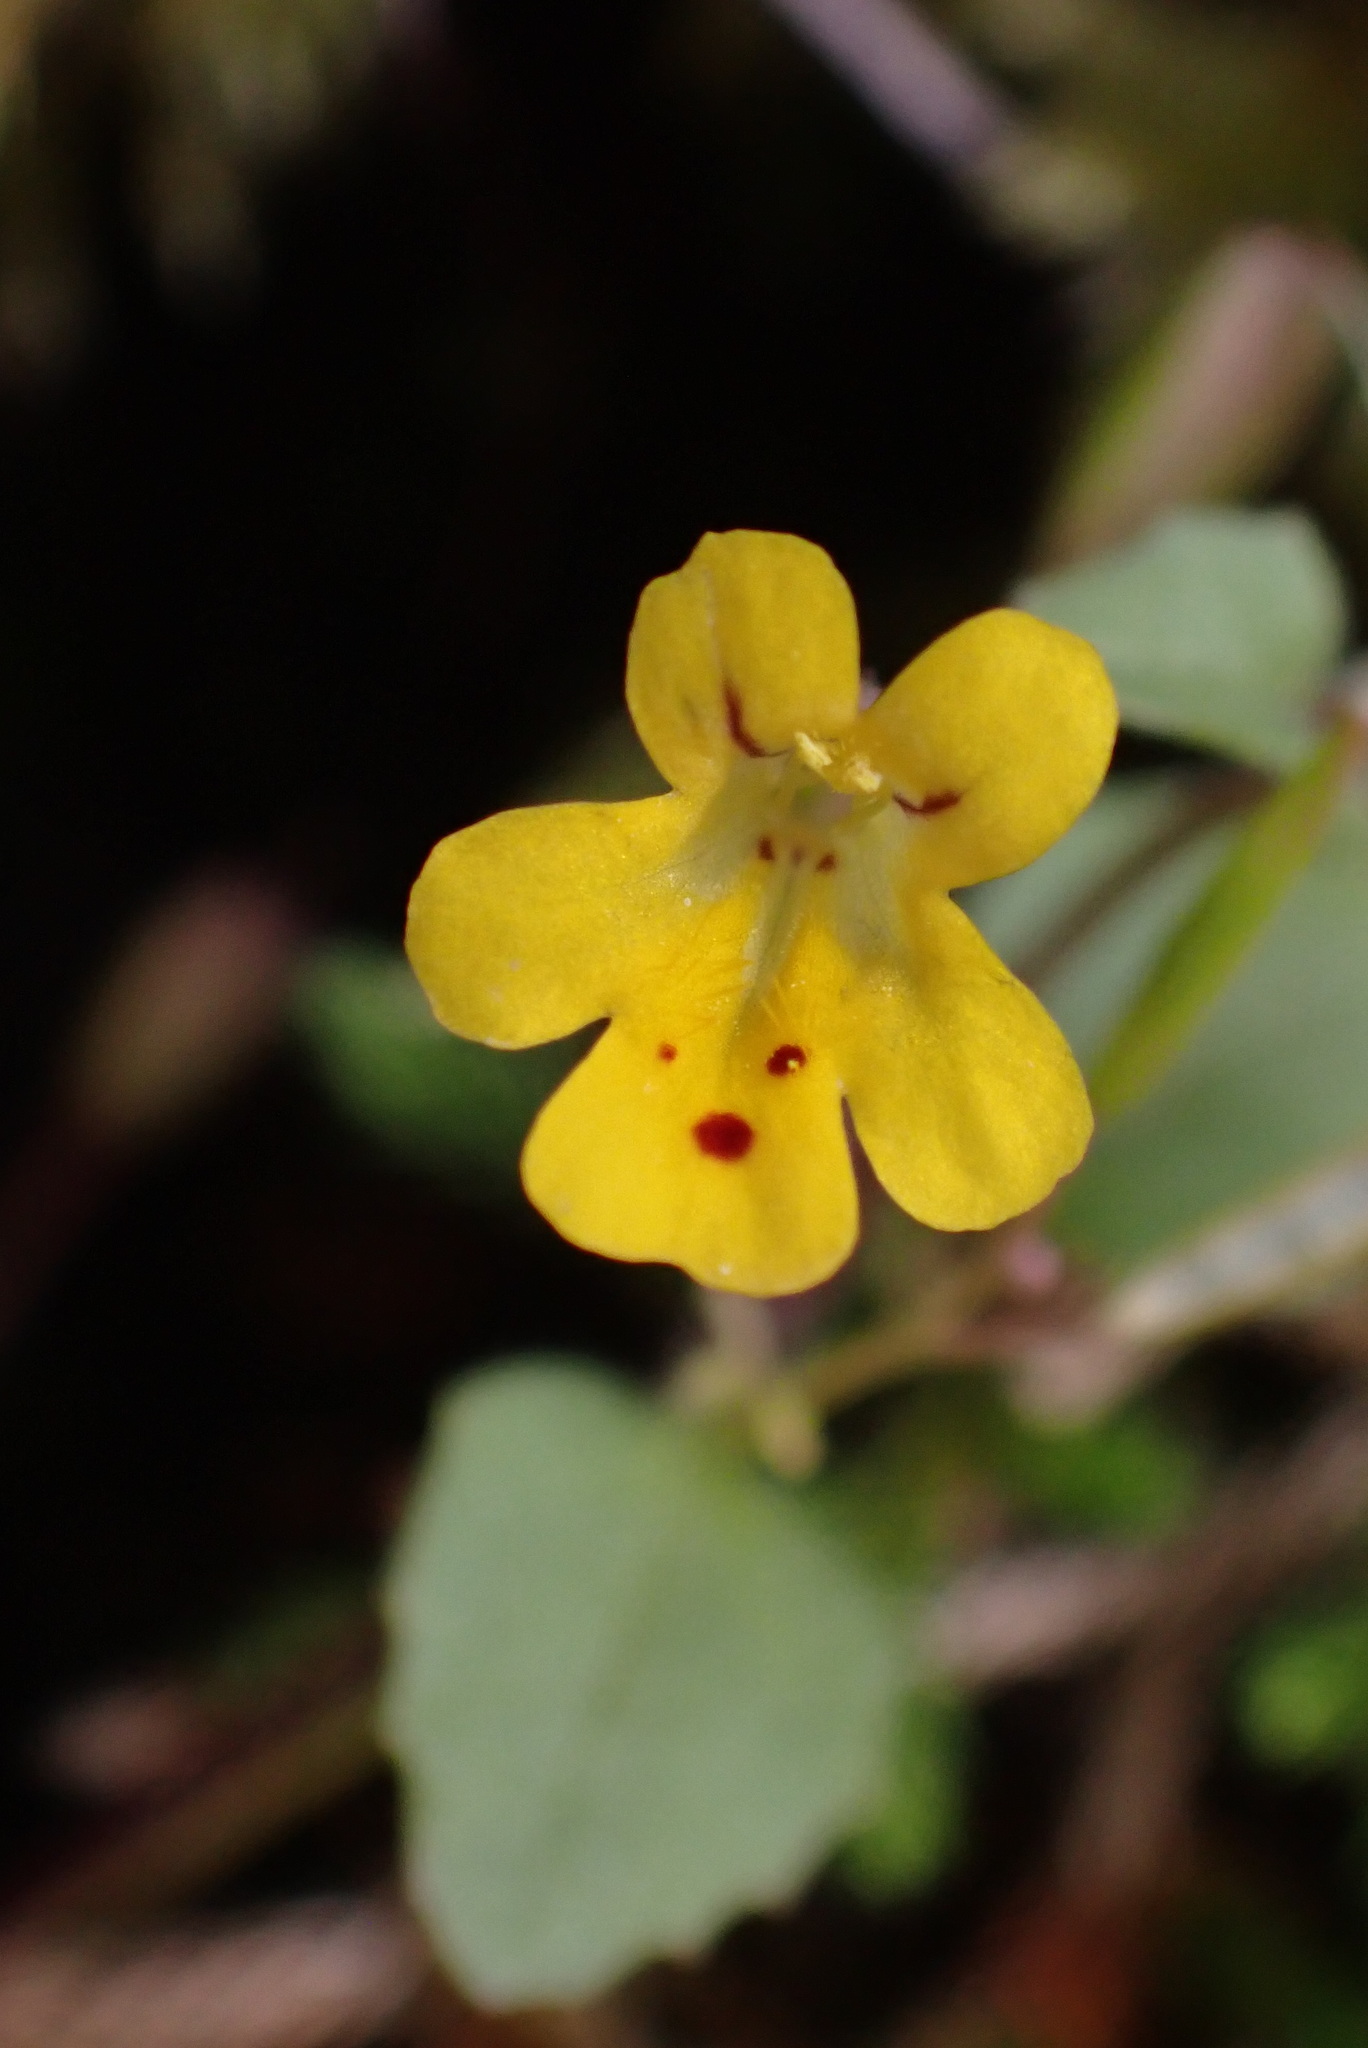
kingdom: Plantae
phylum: Tracheophyta
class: Magnoliopsida
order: Lamiales
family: Phrymaceae
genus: Erythranthe
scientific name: Erythranthe alsinoides
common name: Chickweed monkeyflower
